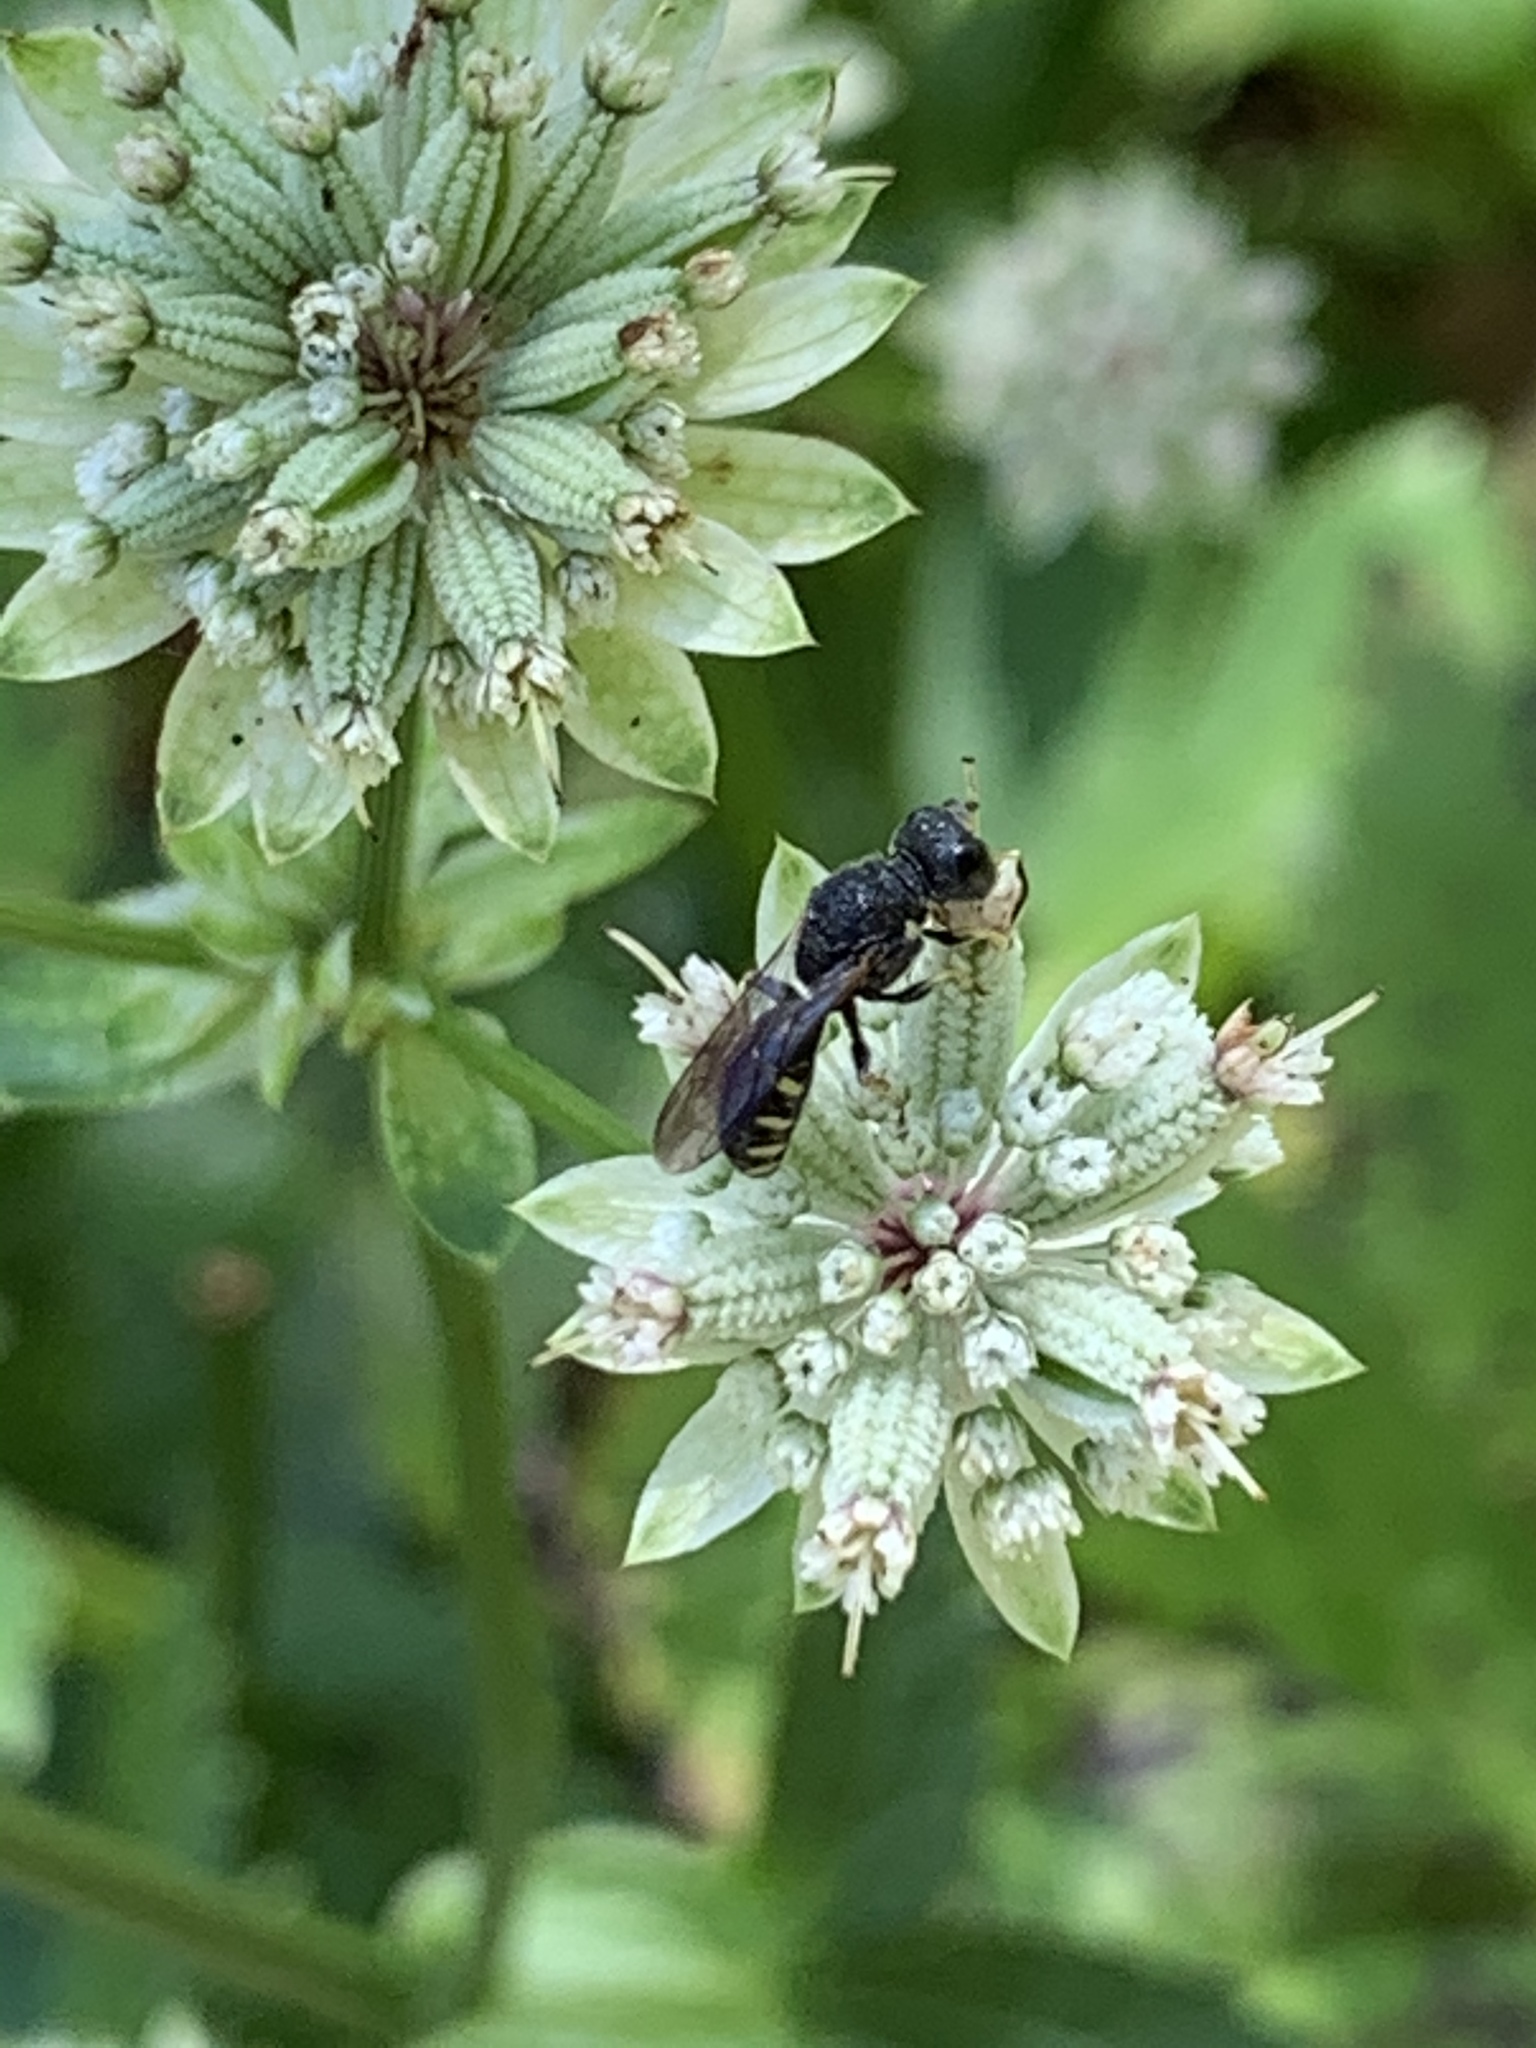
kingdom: Animalia
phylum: Arthropoda
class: Insecta
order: Hymenoptera
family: Crabronidae
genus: Lestica
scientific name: Lestica
